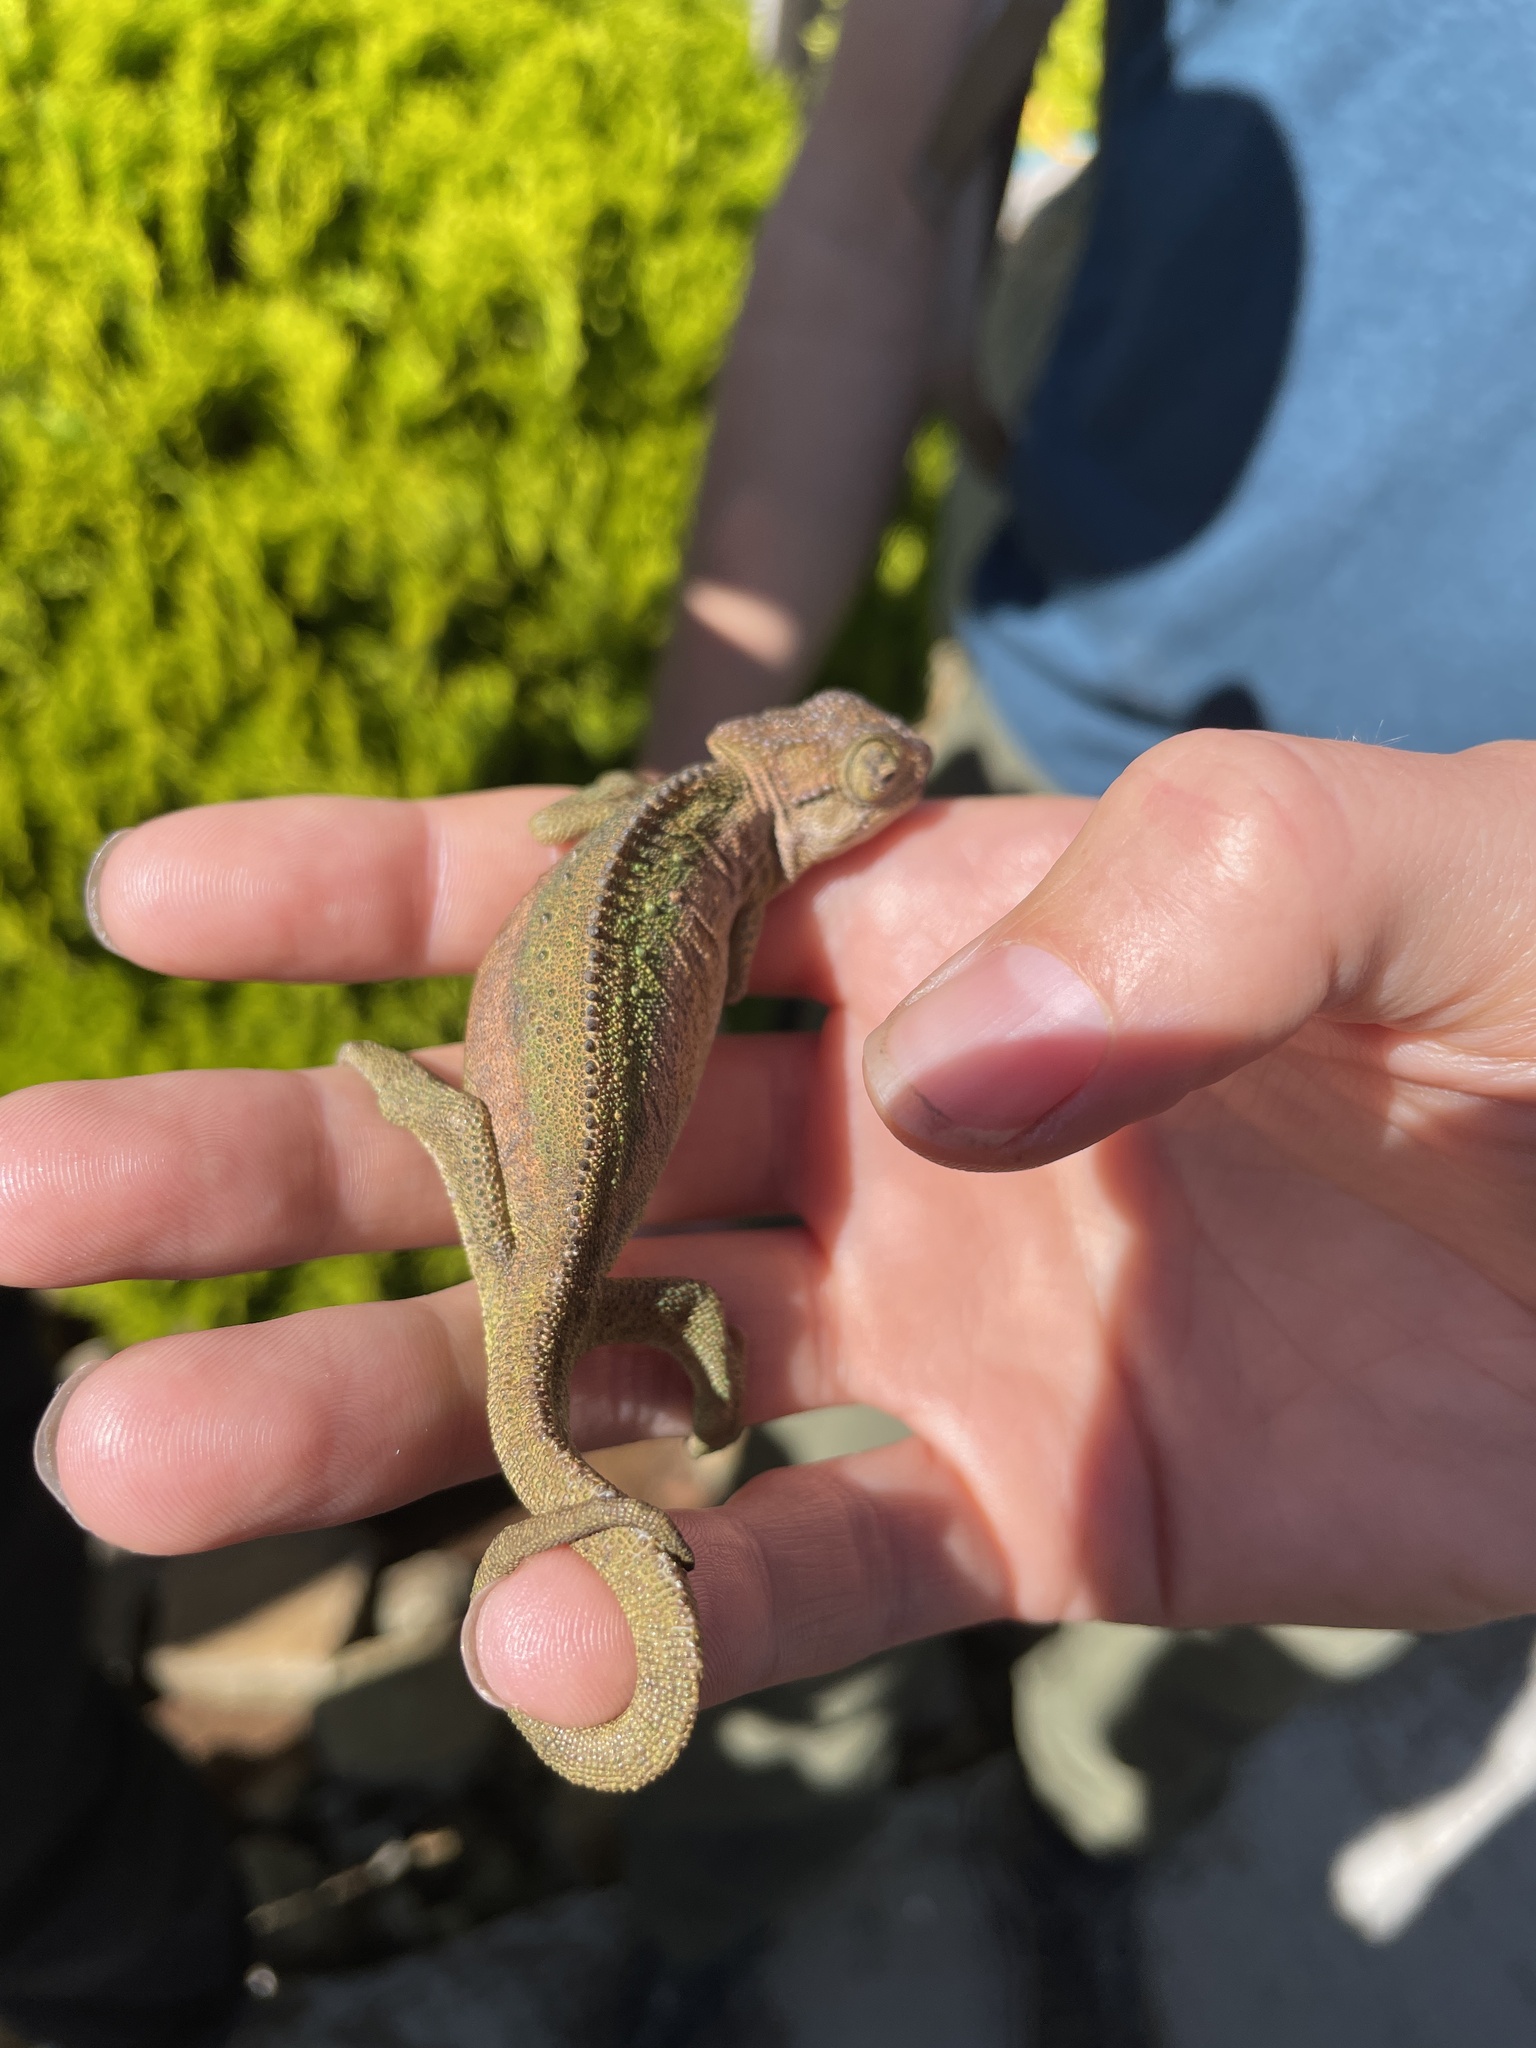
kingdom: Animalia
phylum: Chordata
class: Squamata
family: Chamaeleonidae
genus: Bradypodion
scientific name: Bradypodion dracomontanum
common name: Drakensberg dwarf chameleon
